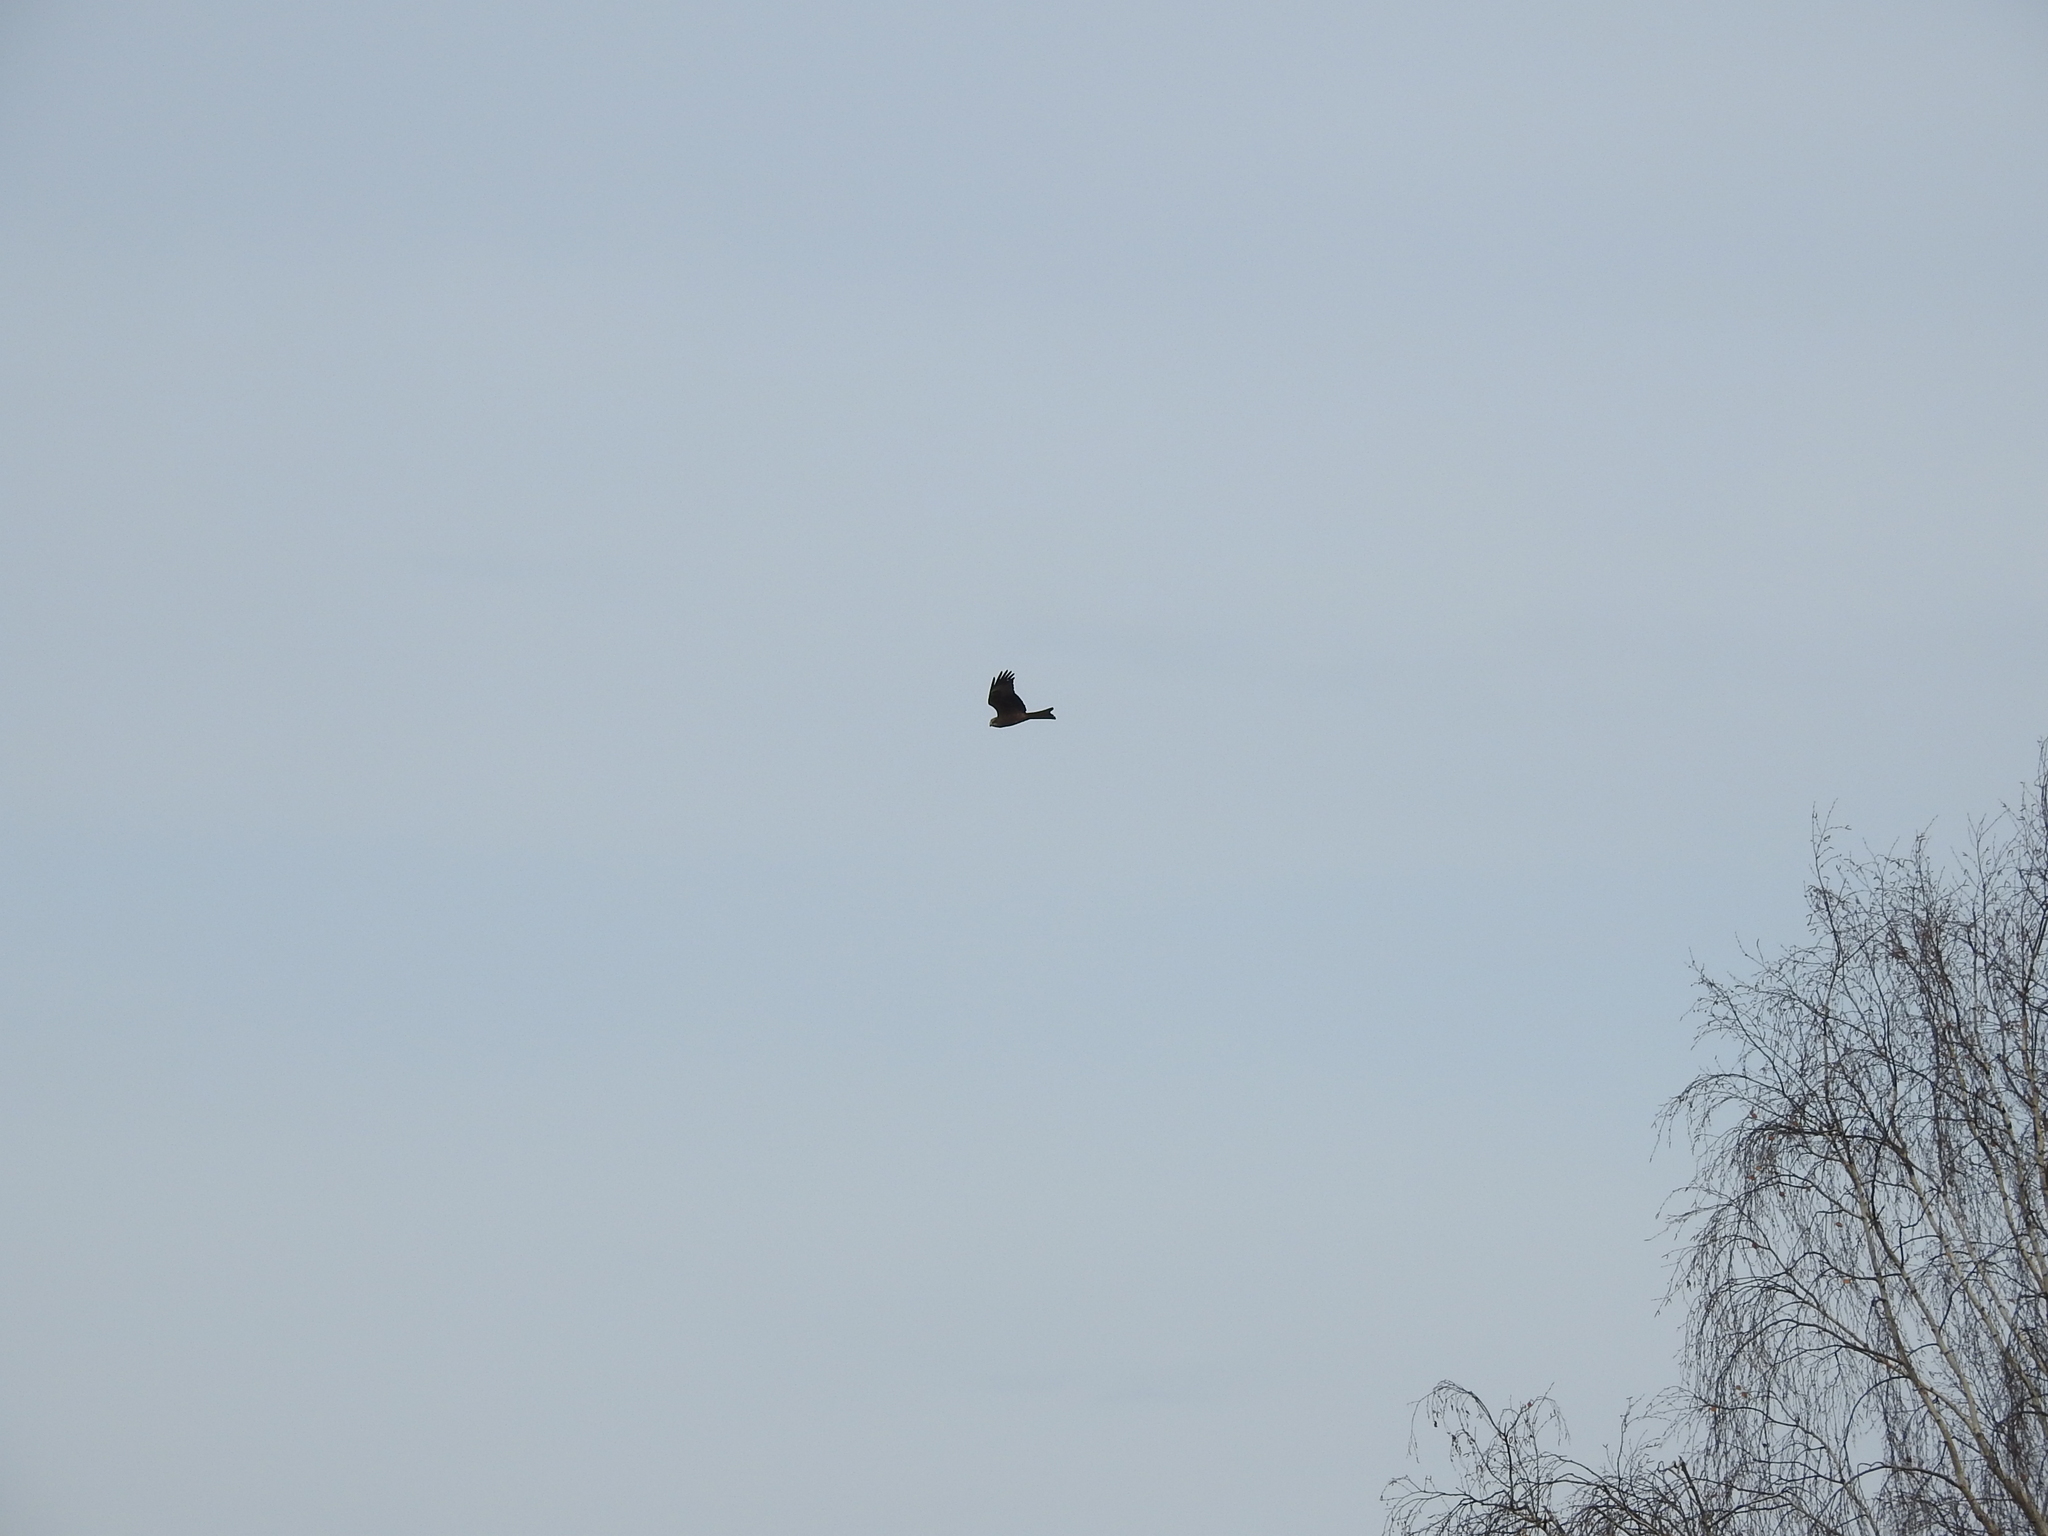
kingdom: Animalia
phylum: Chordata
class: Aves
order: Accipitriformes
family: Accipitridae
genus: Milvus
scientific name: Milvus migrans
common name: Black kite
